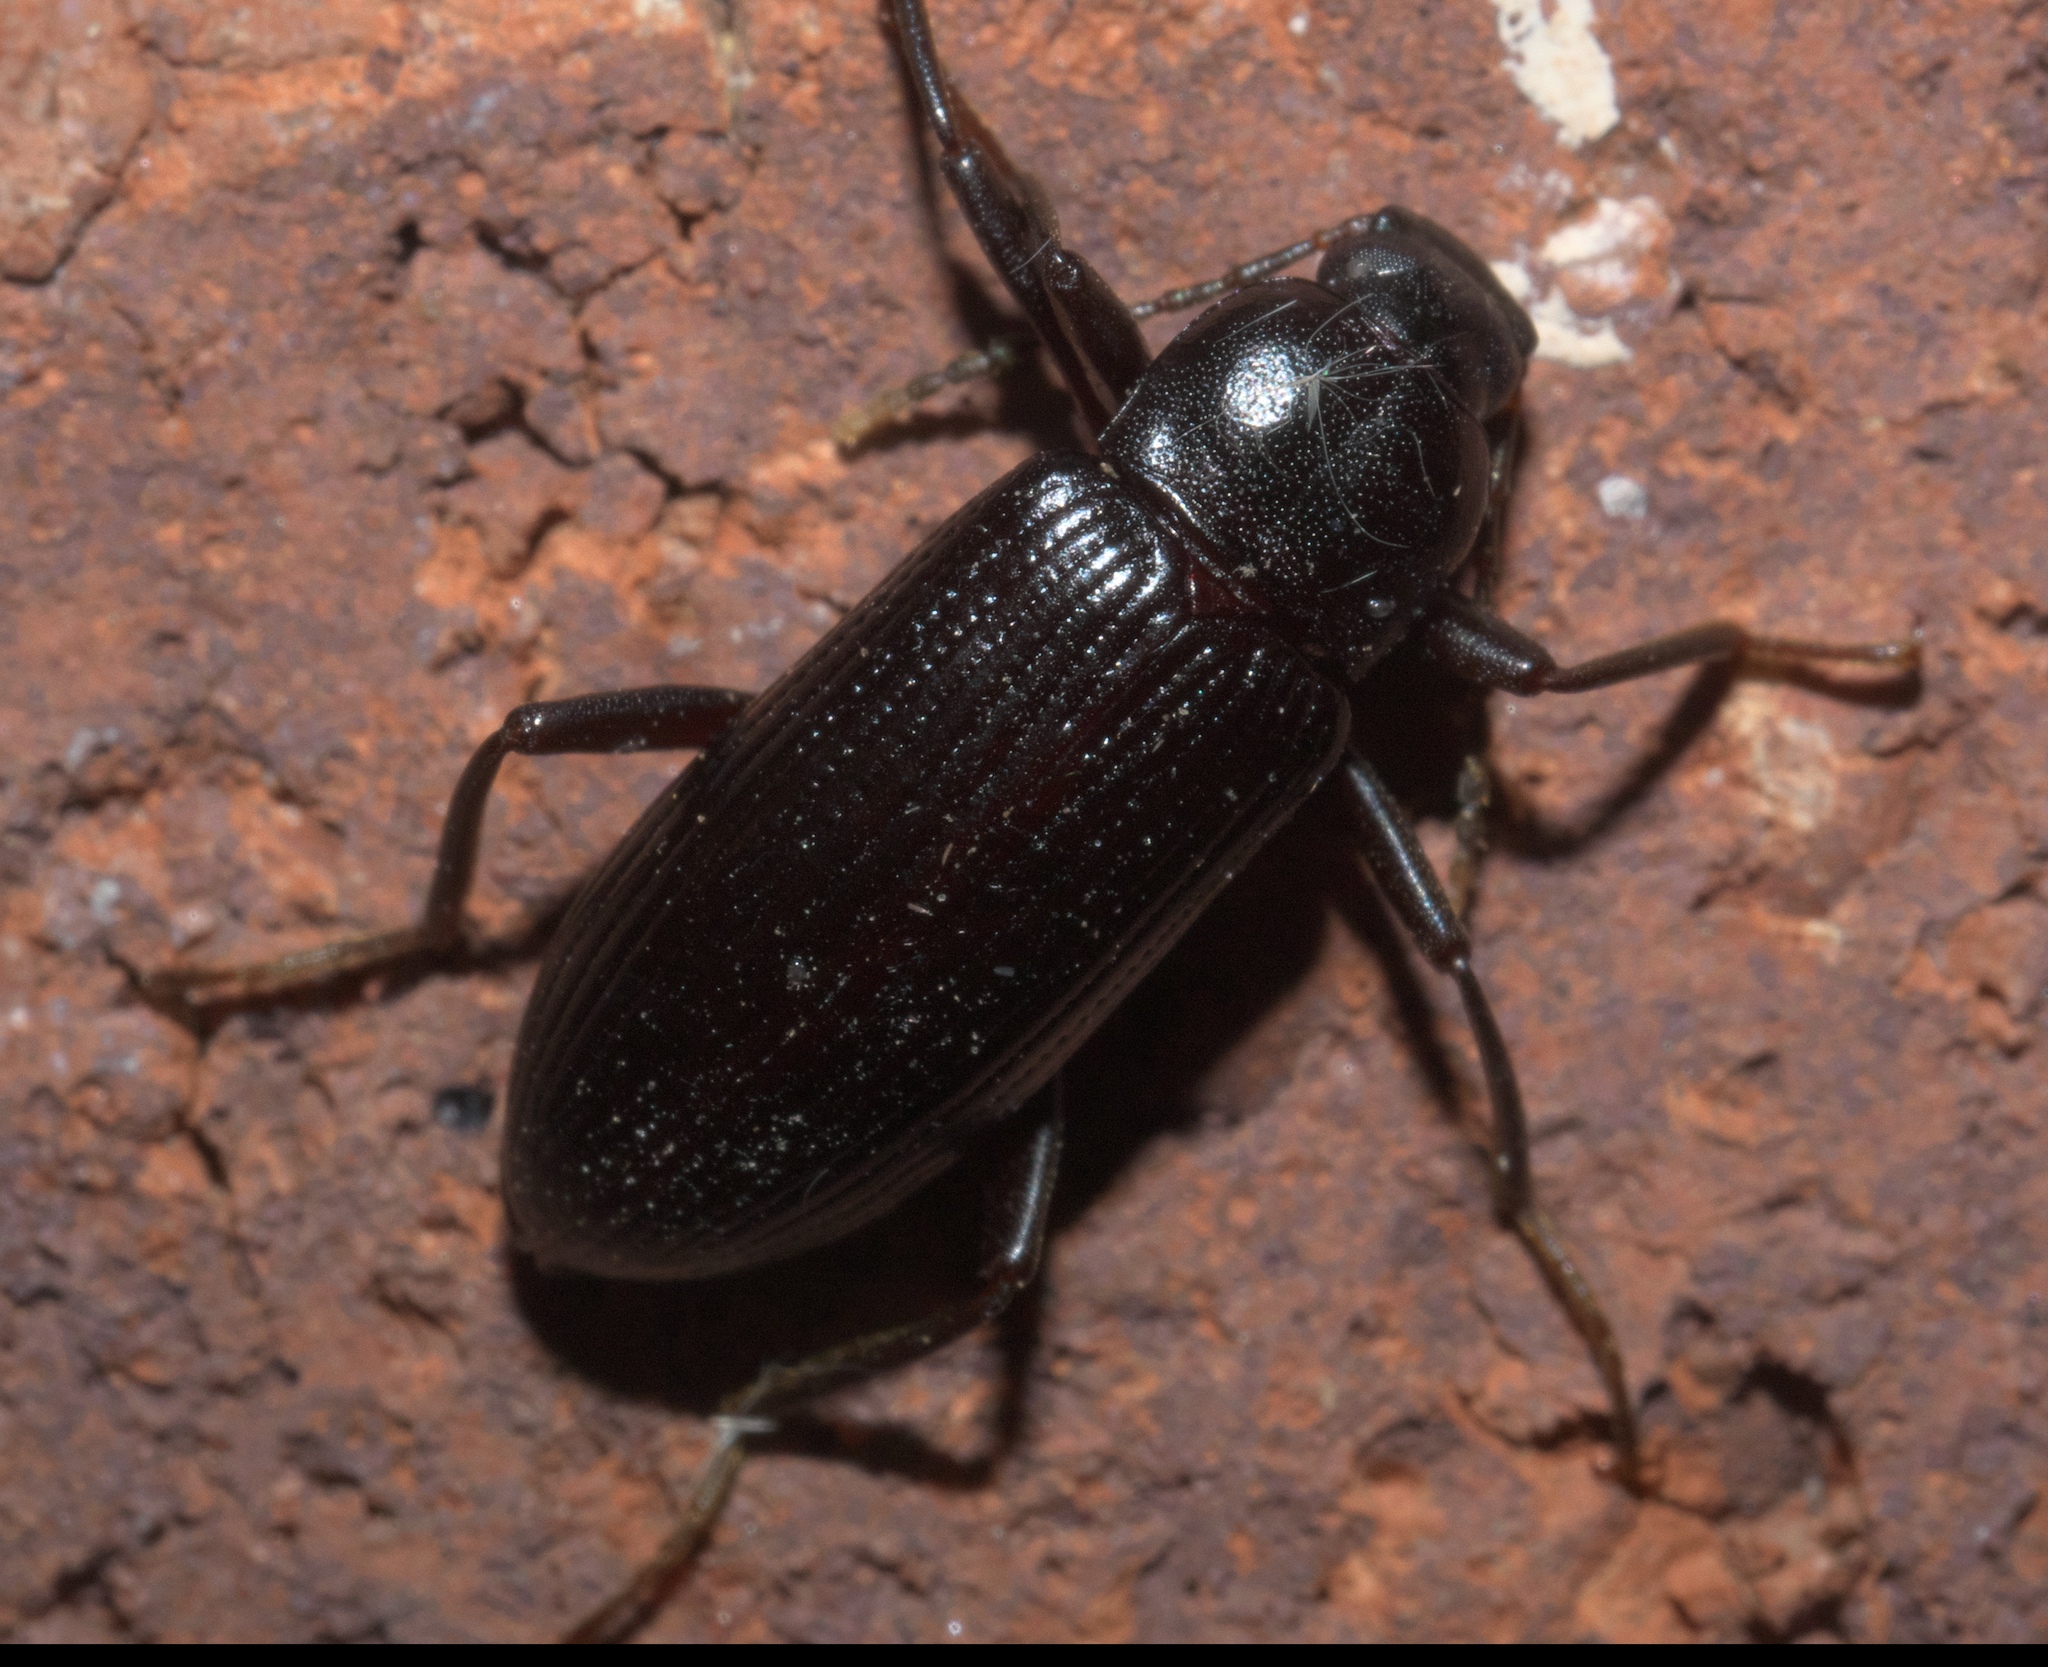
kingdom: Animalia
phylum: Arthropoda
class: Insecta
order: Coleoptera
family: Tenebrionidae
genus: Strongylium
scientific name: Strongylium terminatum
